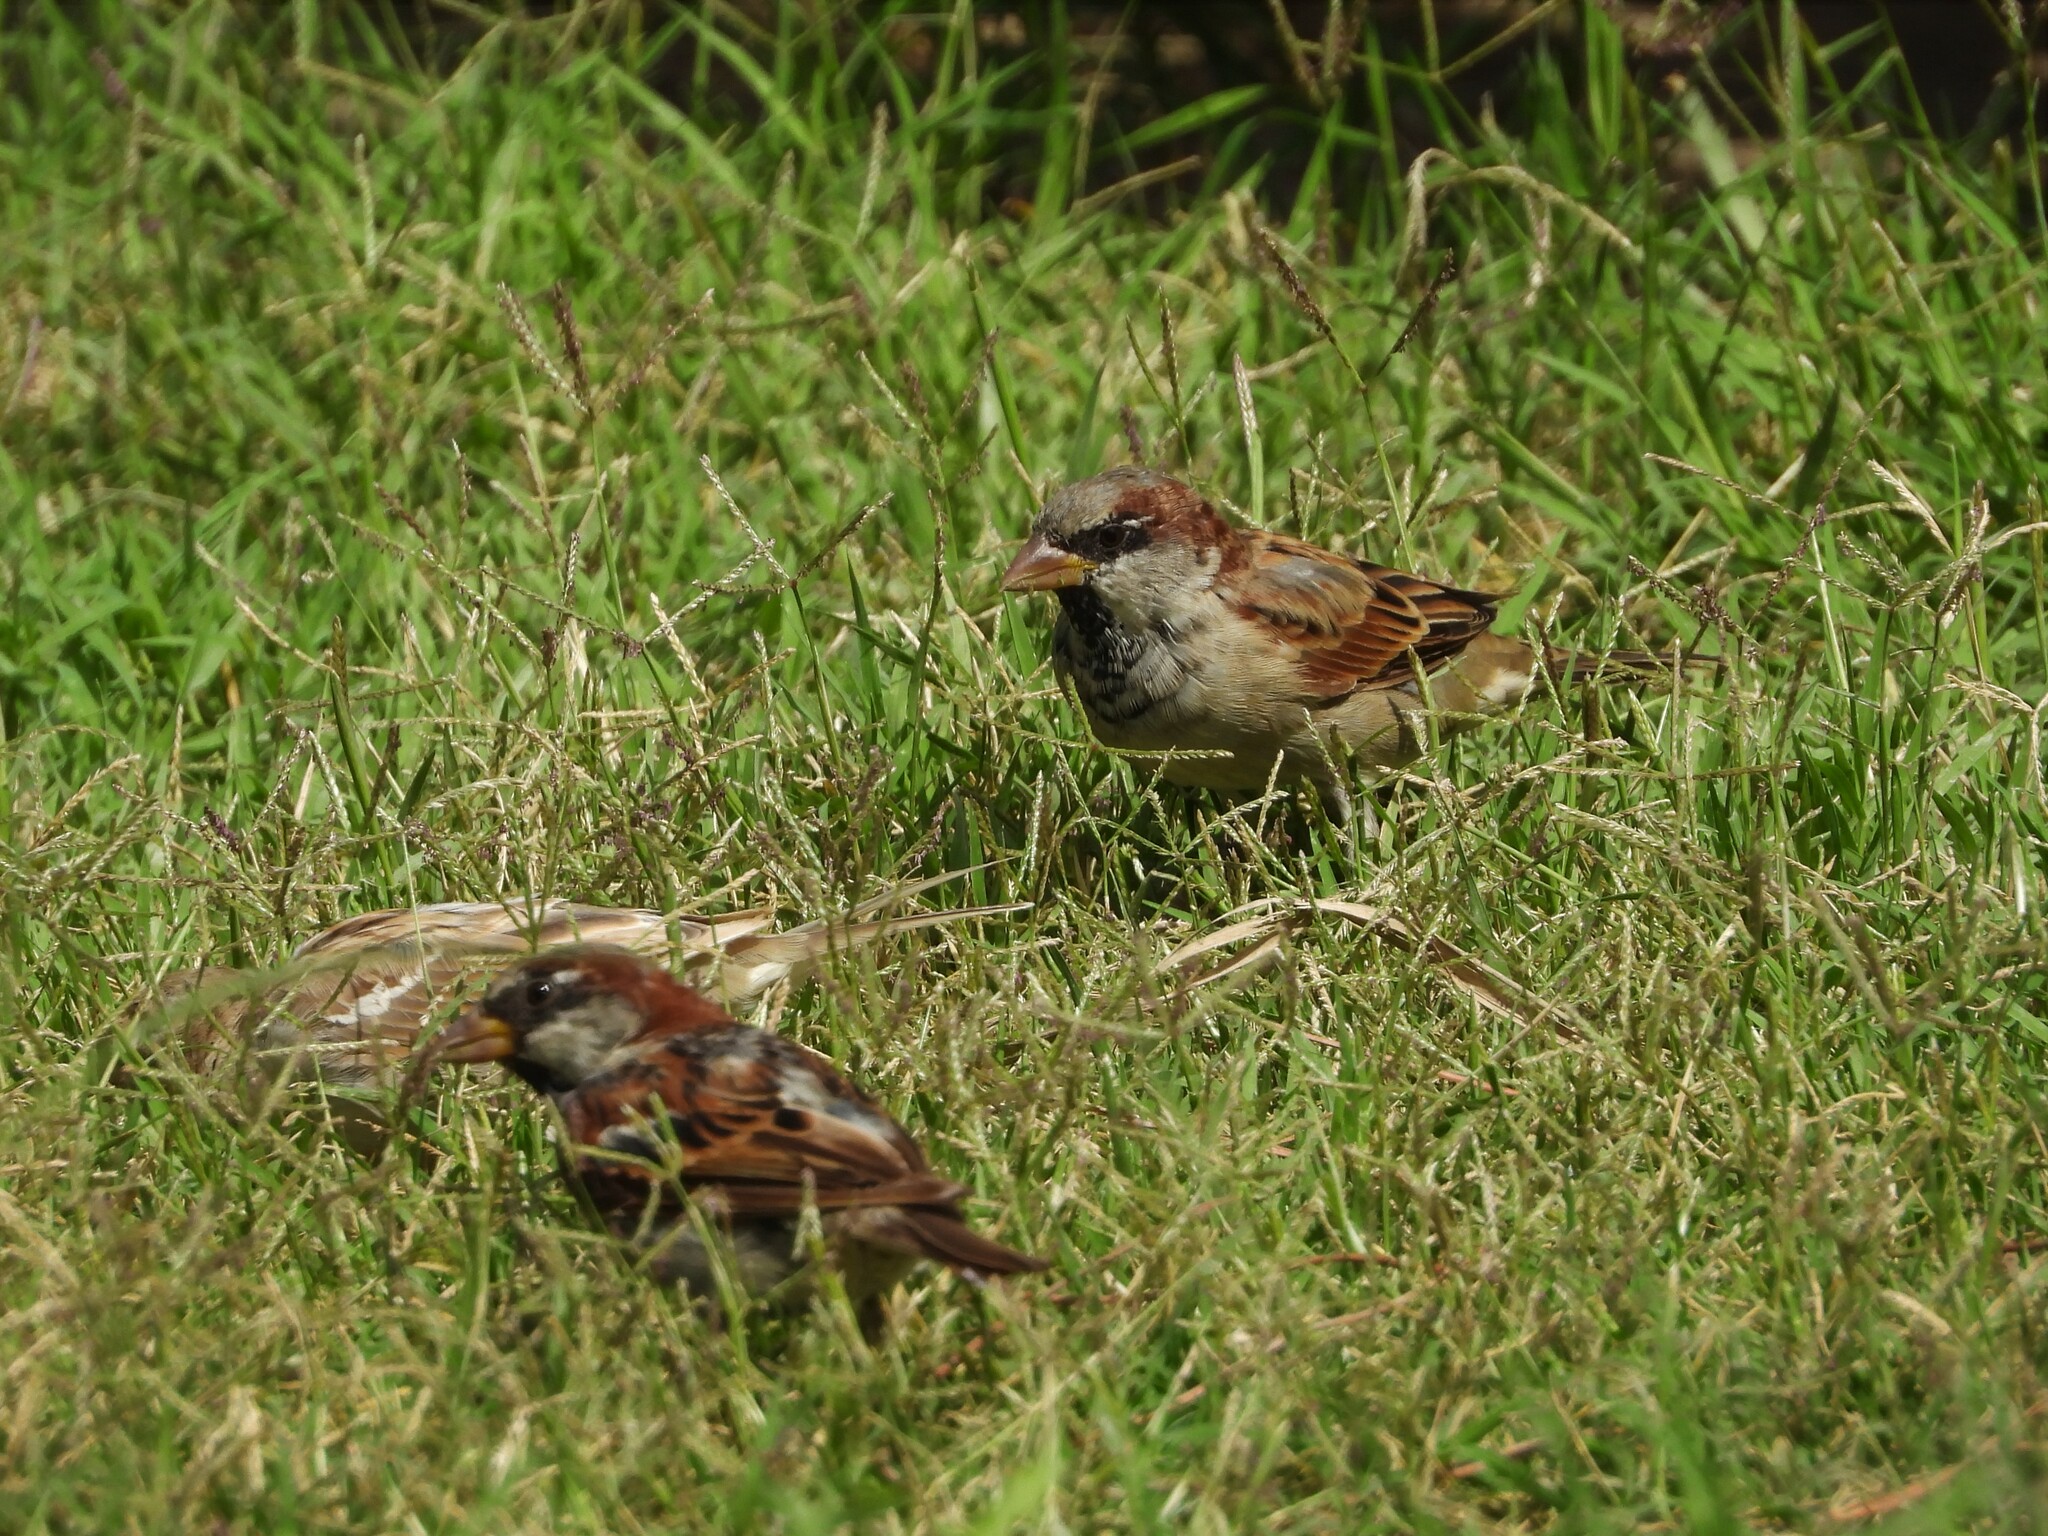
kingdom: Animalia
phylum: Chordata
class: Aves
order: Passeriformes
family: Passeridae
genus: Passer
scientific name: Passer domesticus
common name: House sparrow
